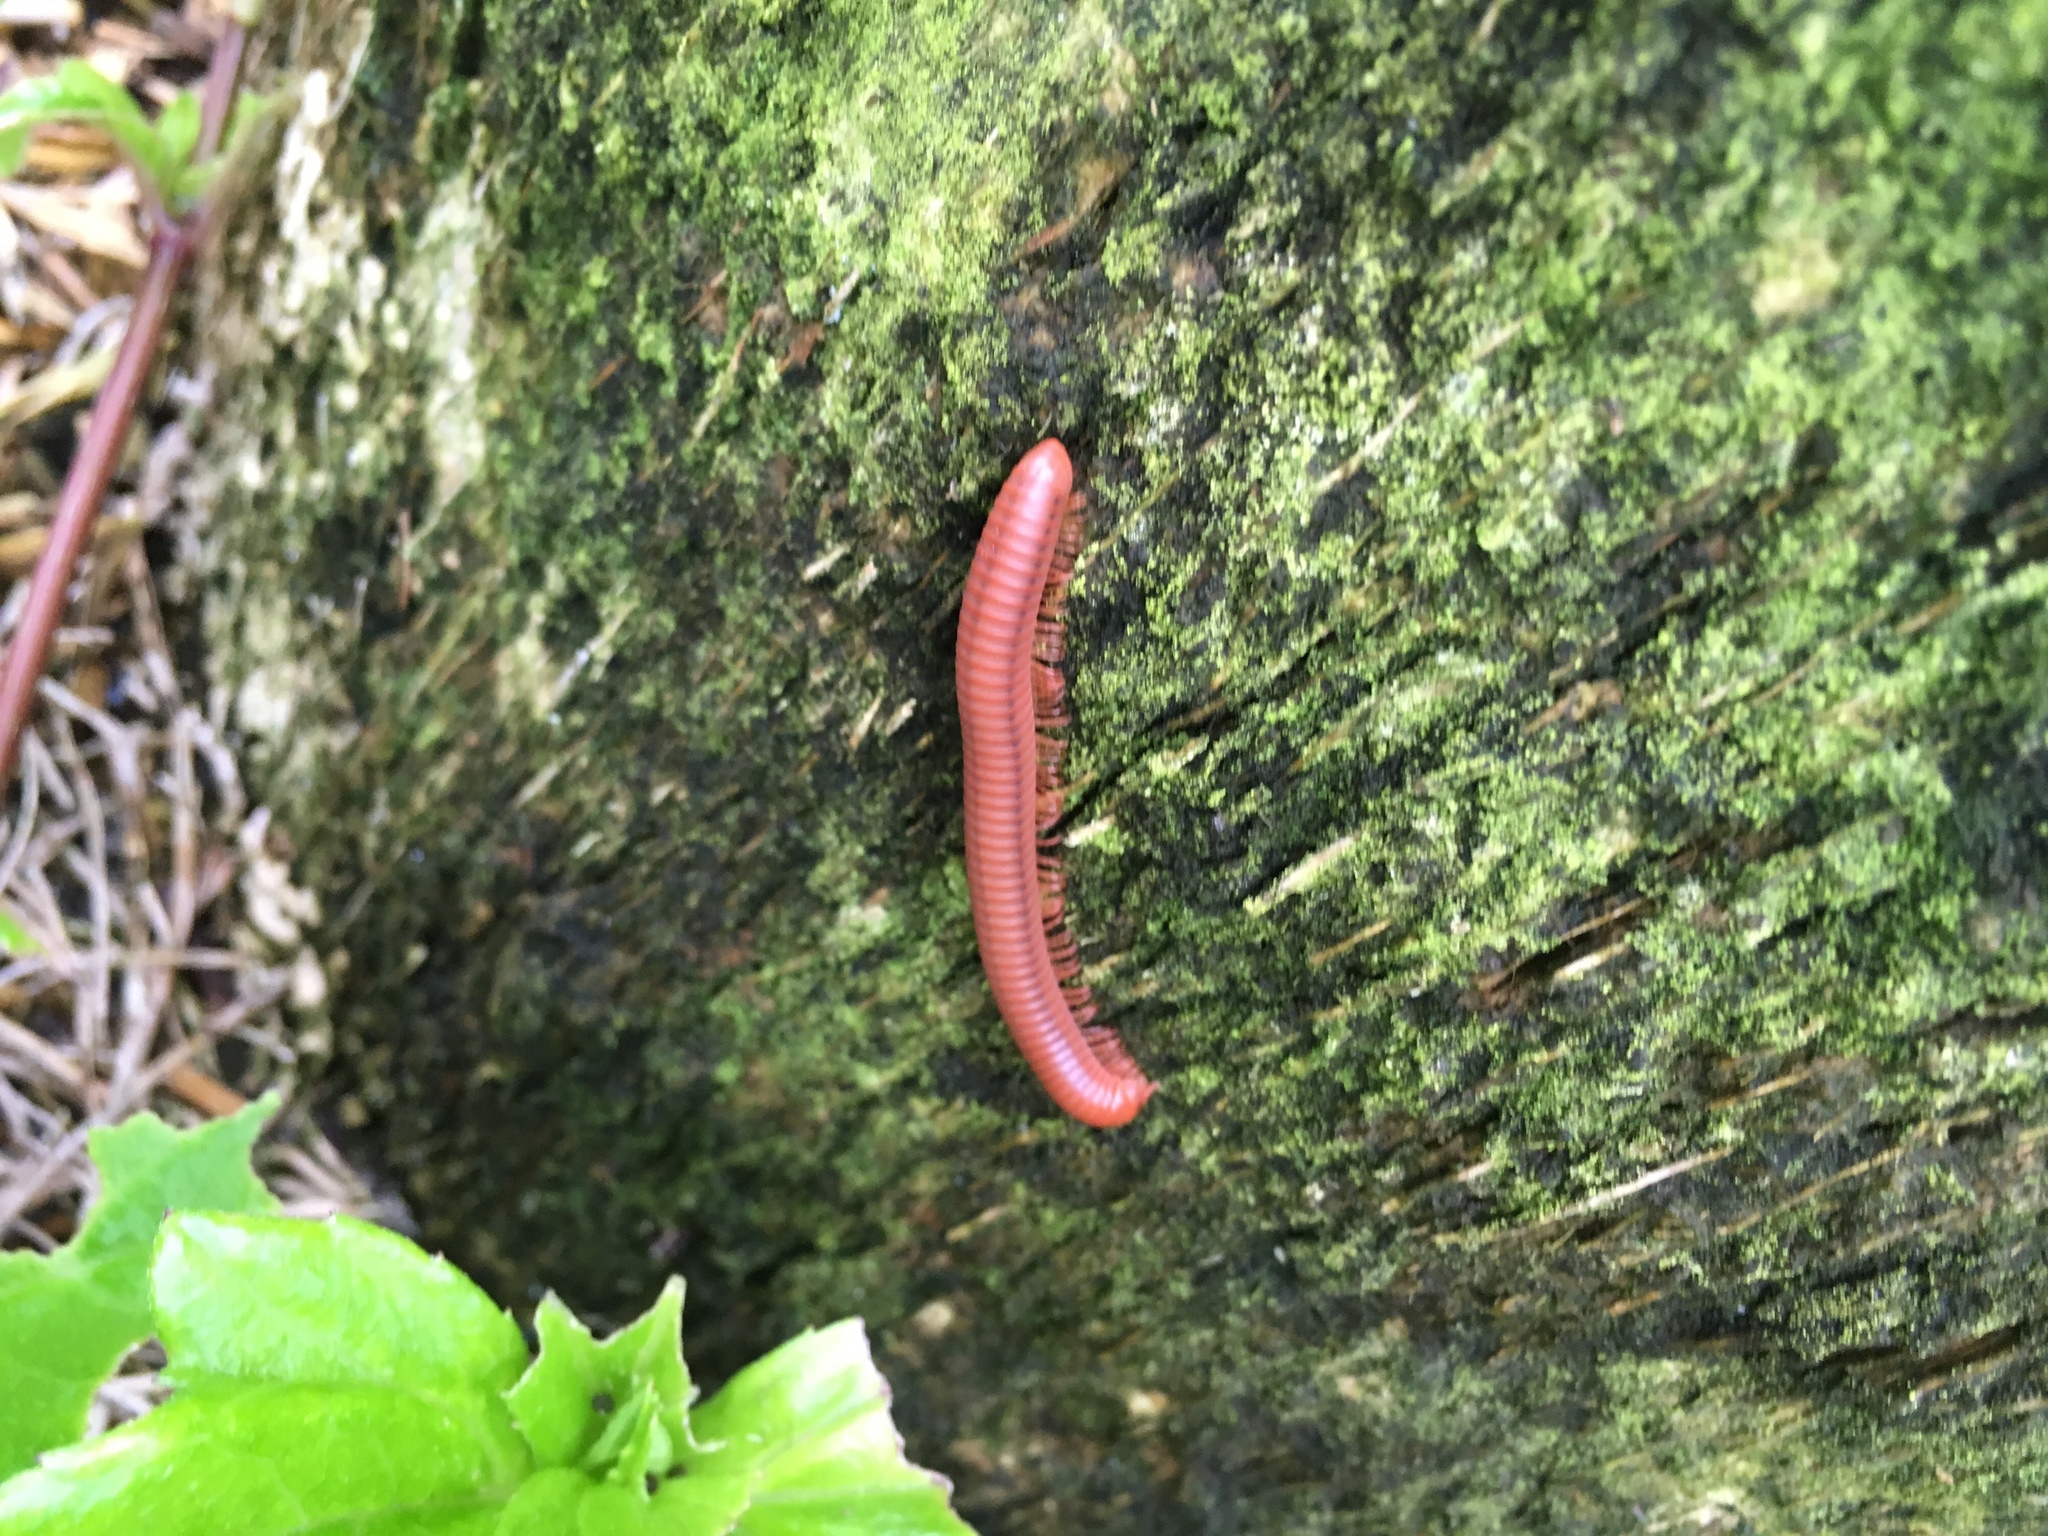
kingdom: Animalia
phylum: Arthropoda
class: Diplopoda
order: Spirobolida
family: Pachybolidae
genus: Trigoniulus
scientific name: Trigoniulus corallinus
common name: Millipede
